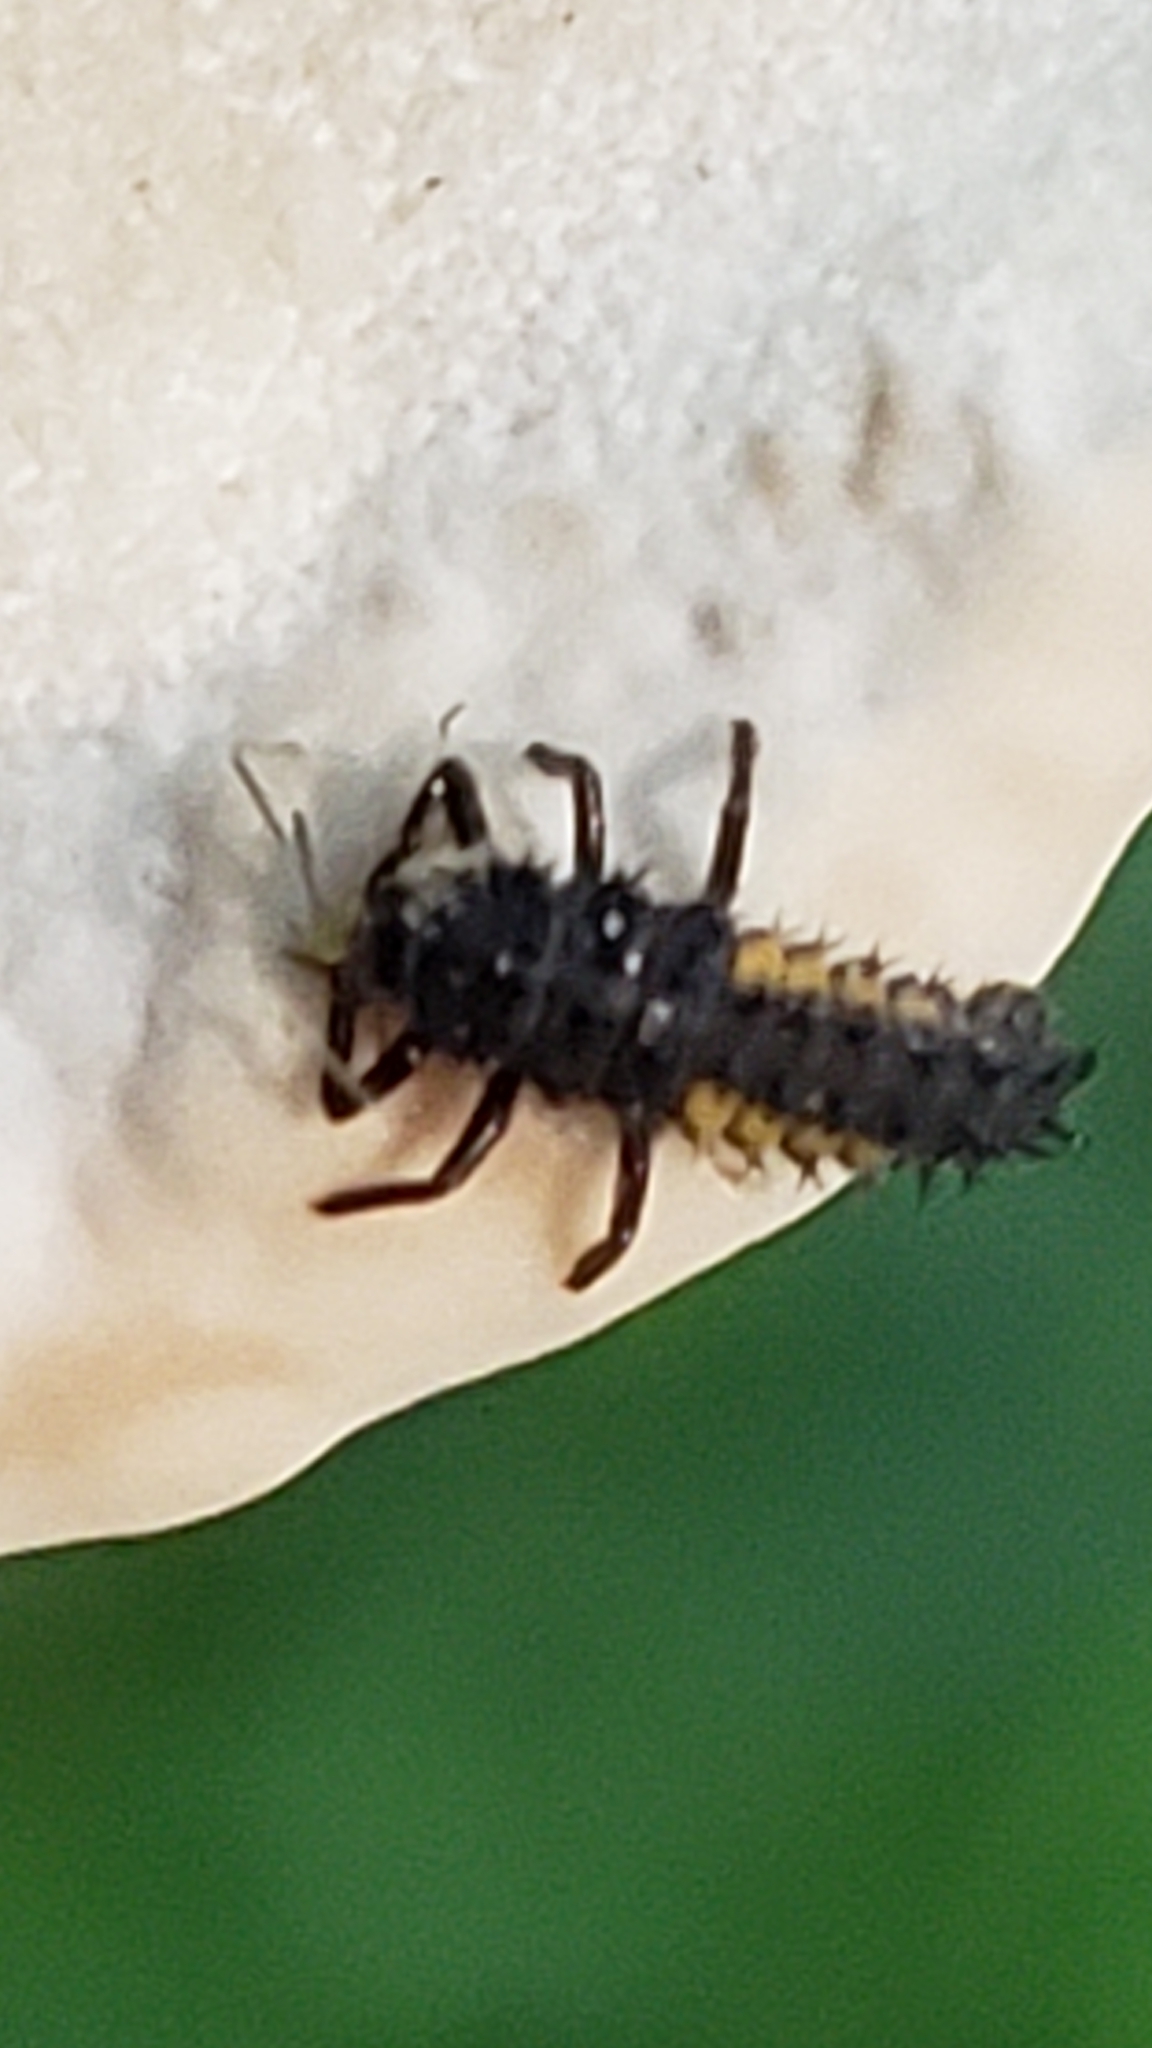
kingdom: Animalia
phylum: Arthropoda
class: Insecta
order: Coleoptera
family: Coccinellidae
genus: Harmonia
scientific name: Harmonia axyridis
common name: Harlequin ladybird
